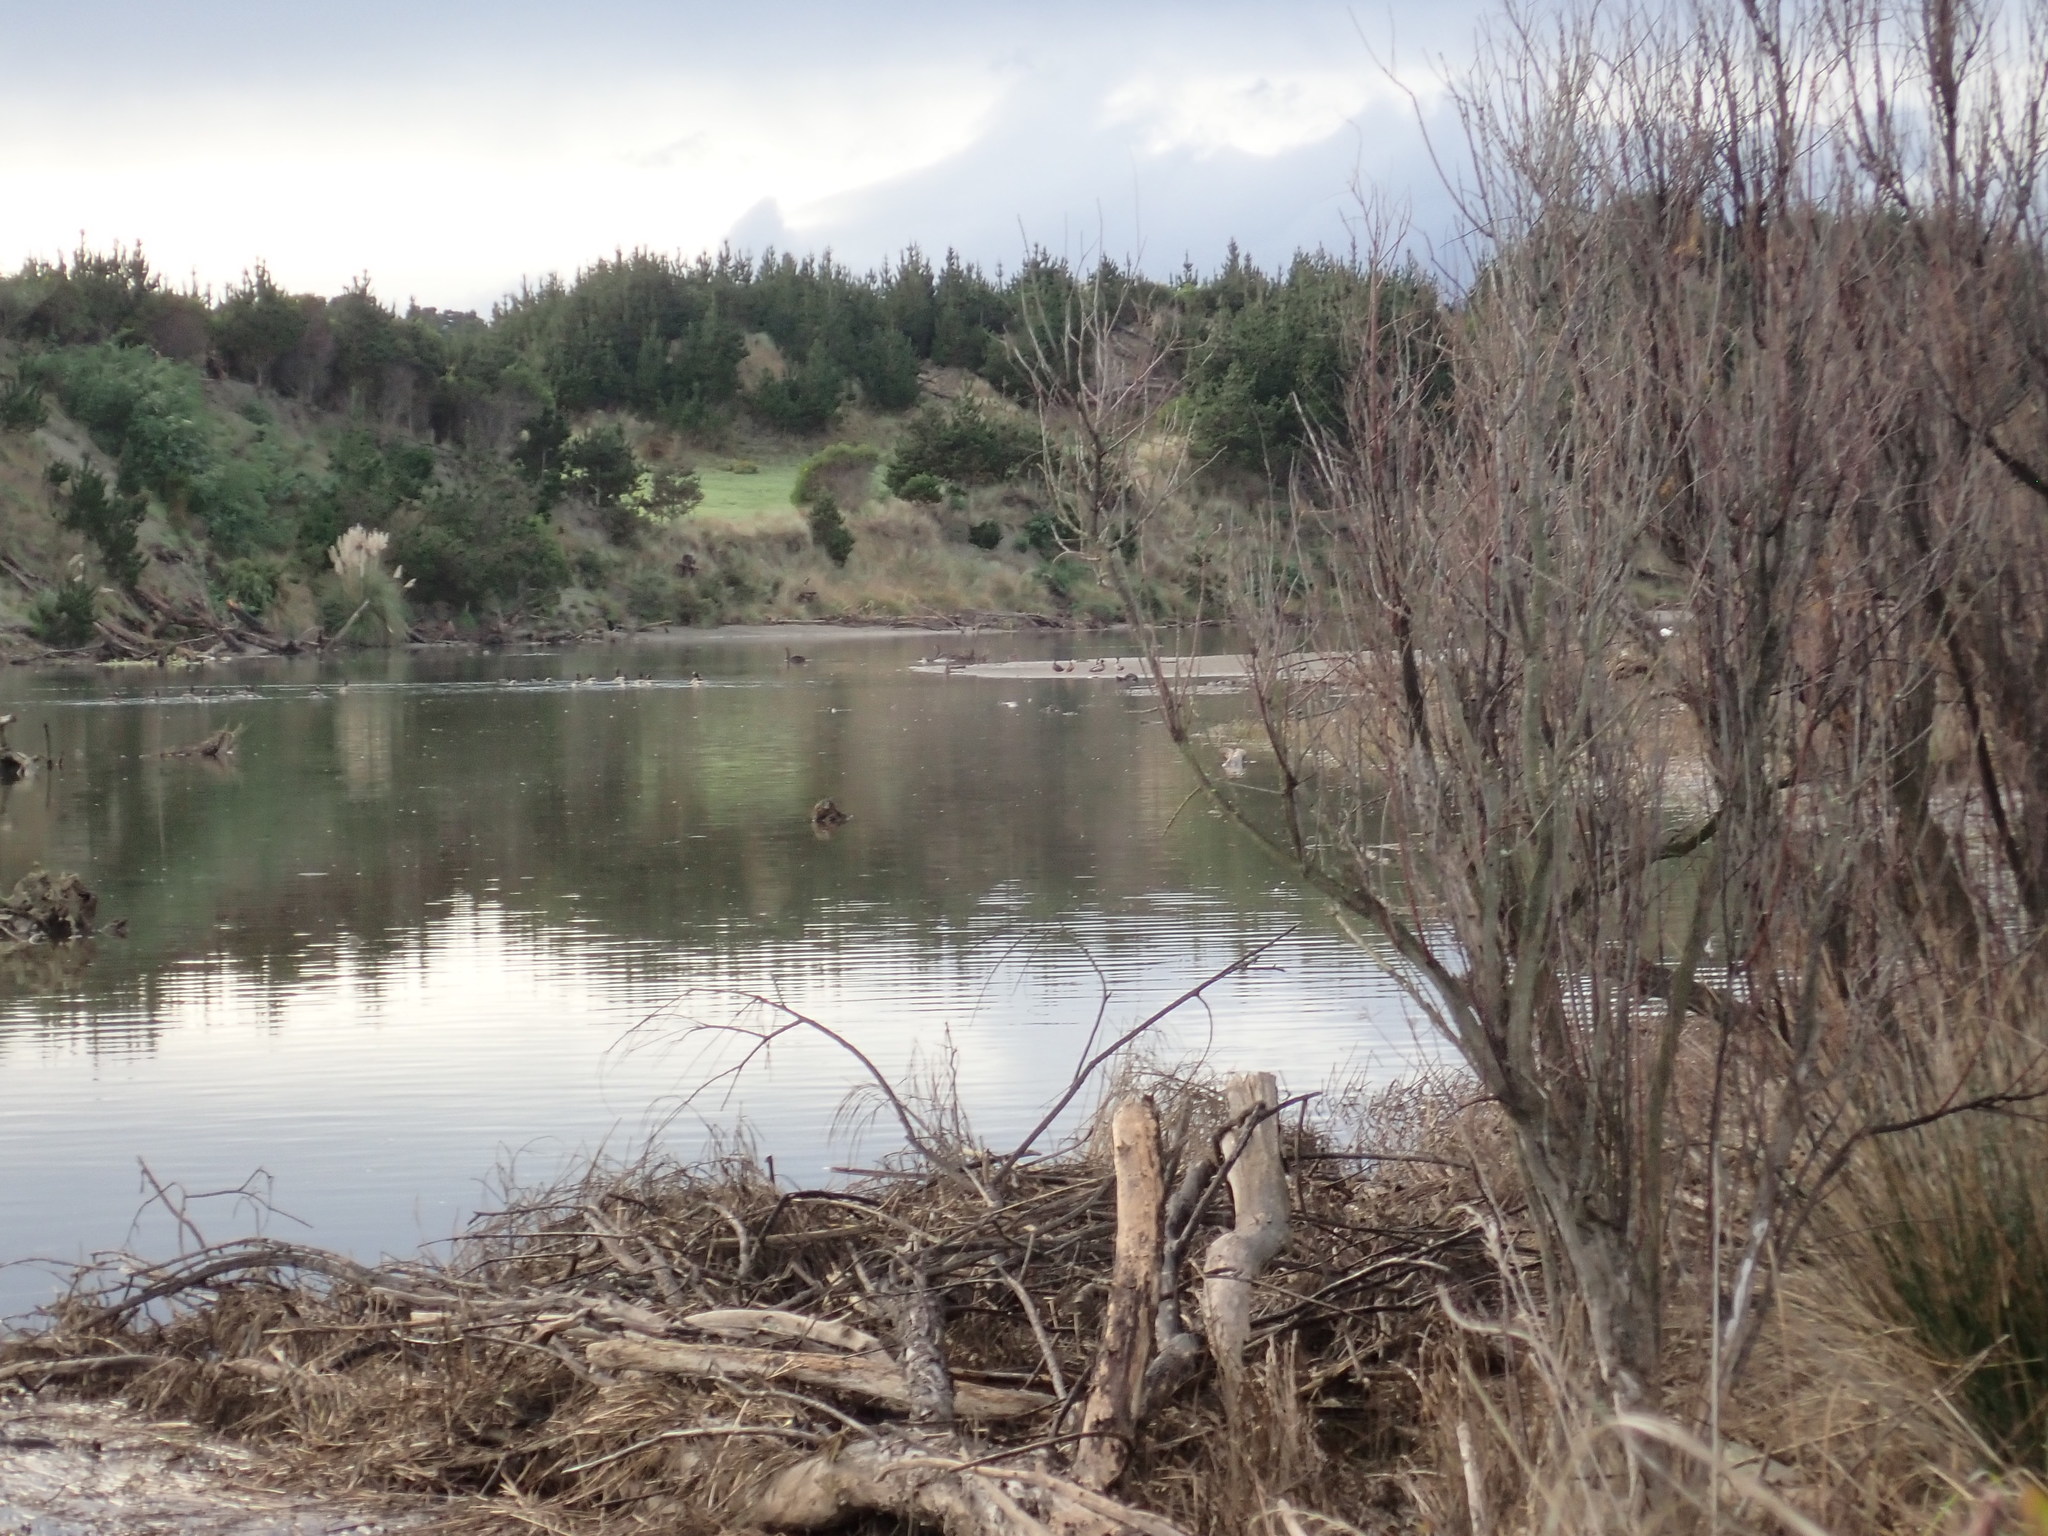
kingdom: Animalia
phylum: Chordata
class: Aves
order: Anseriformes
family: Anatidae
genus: Branta
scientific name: Branta canadensis
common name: Canada goose
